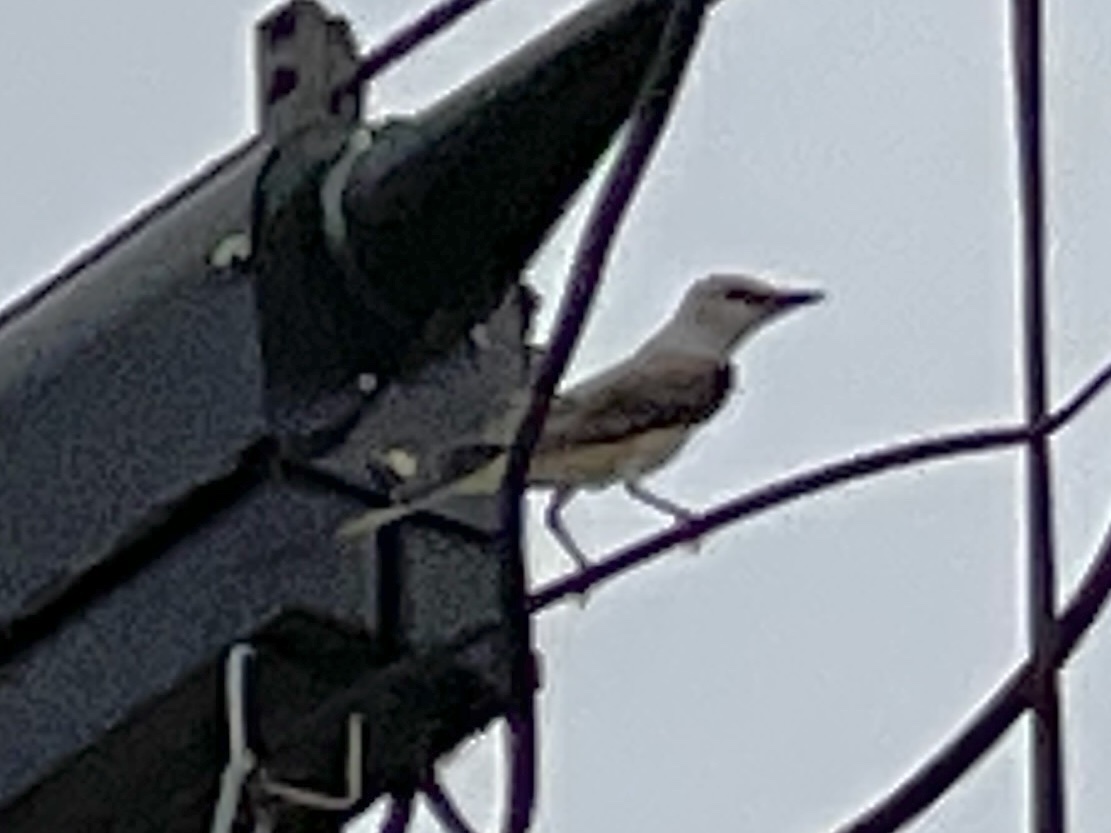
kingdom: Animalia
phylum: Chordata
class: Aves
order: Passeriformes
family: Tyrannidae
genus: Tyrannus
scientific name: Tyrannus forficatus
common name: Scissor-tailed flycatcher
